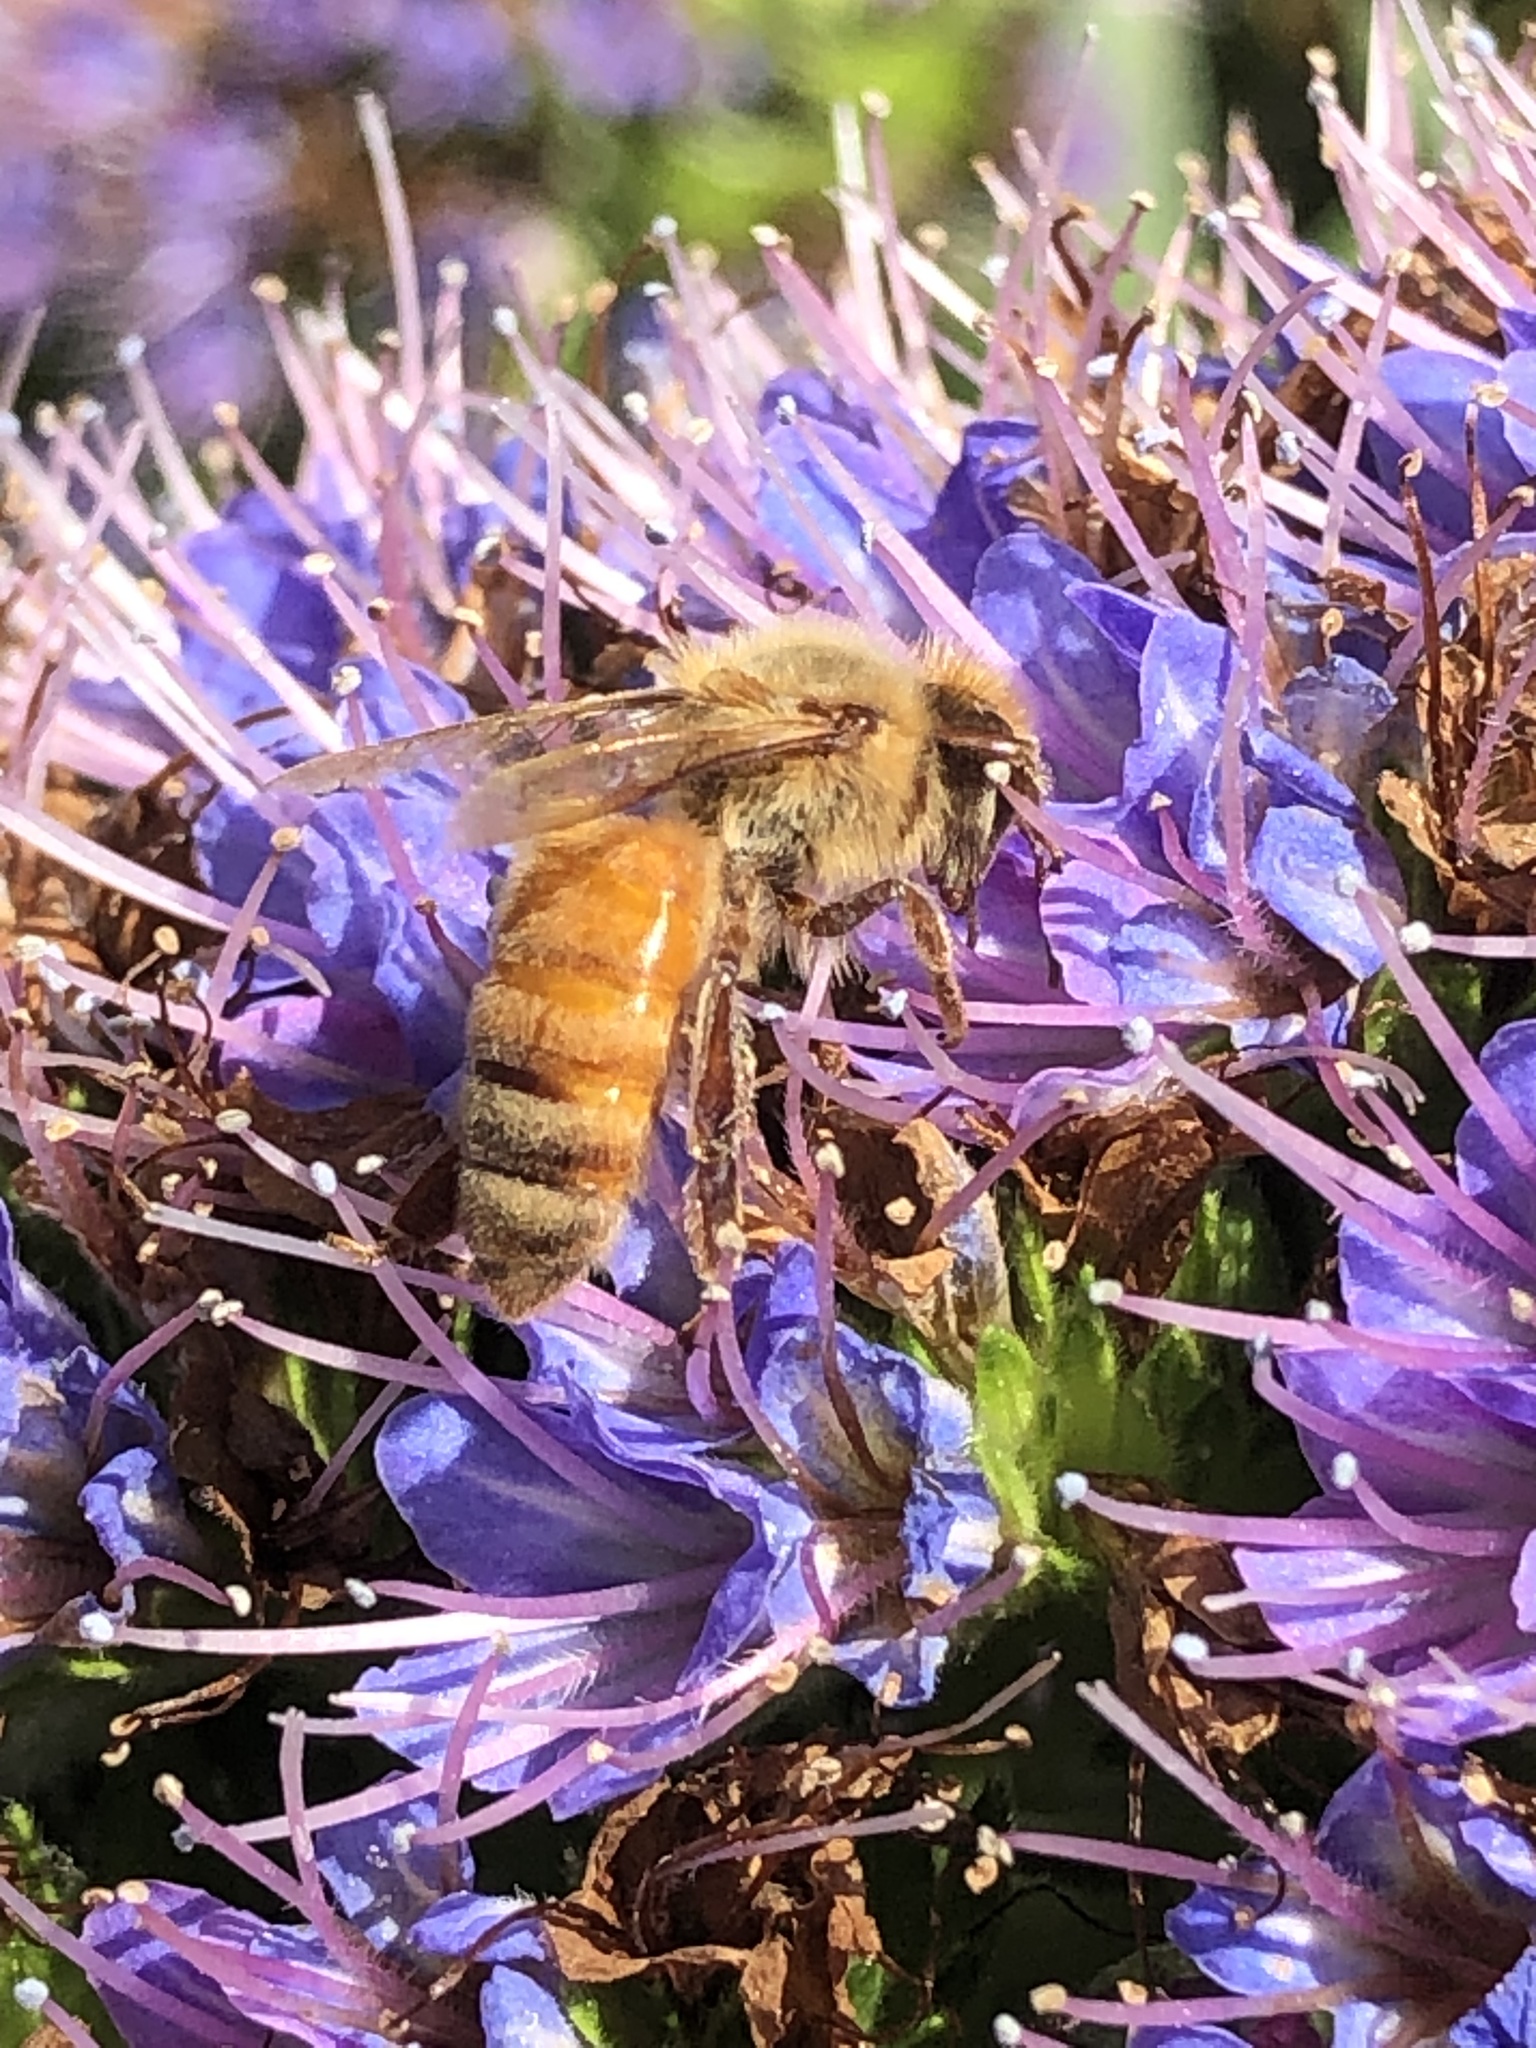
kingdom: Animalia
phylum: Arthropoda
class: Insecta
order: Hymenoptera
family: Apidae
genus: Apis
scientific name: Apis mellifera
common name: Honey bee
